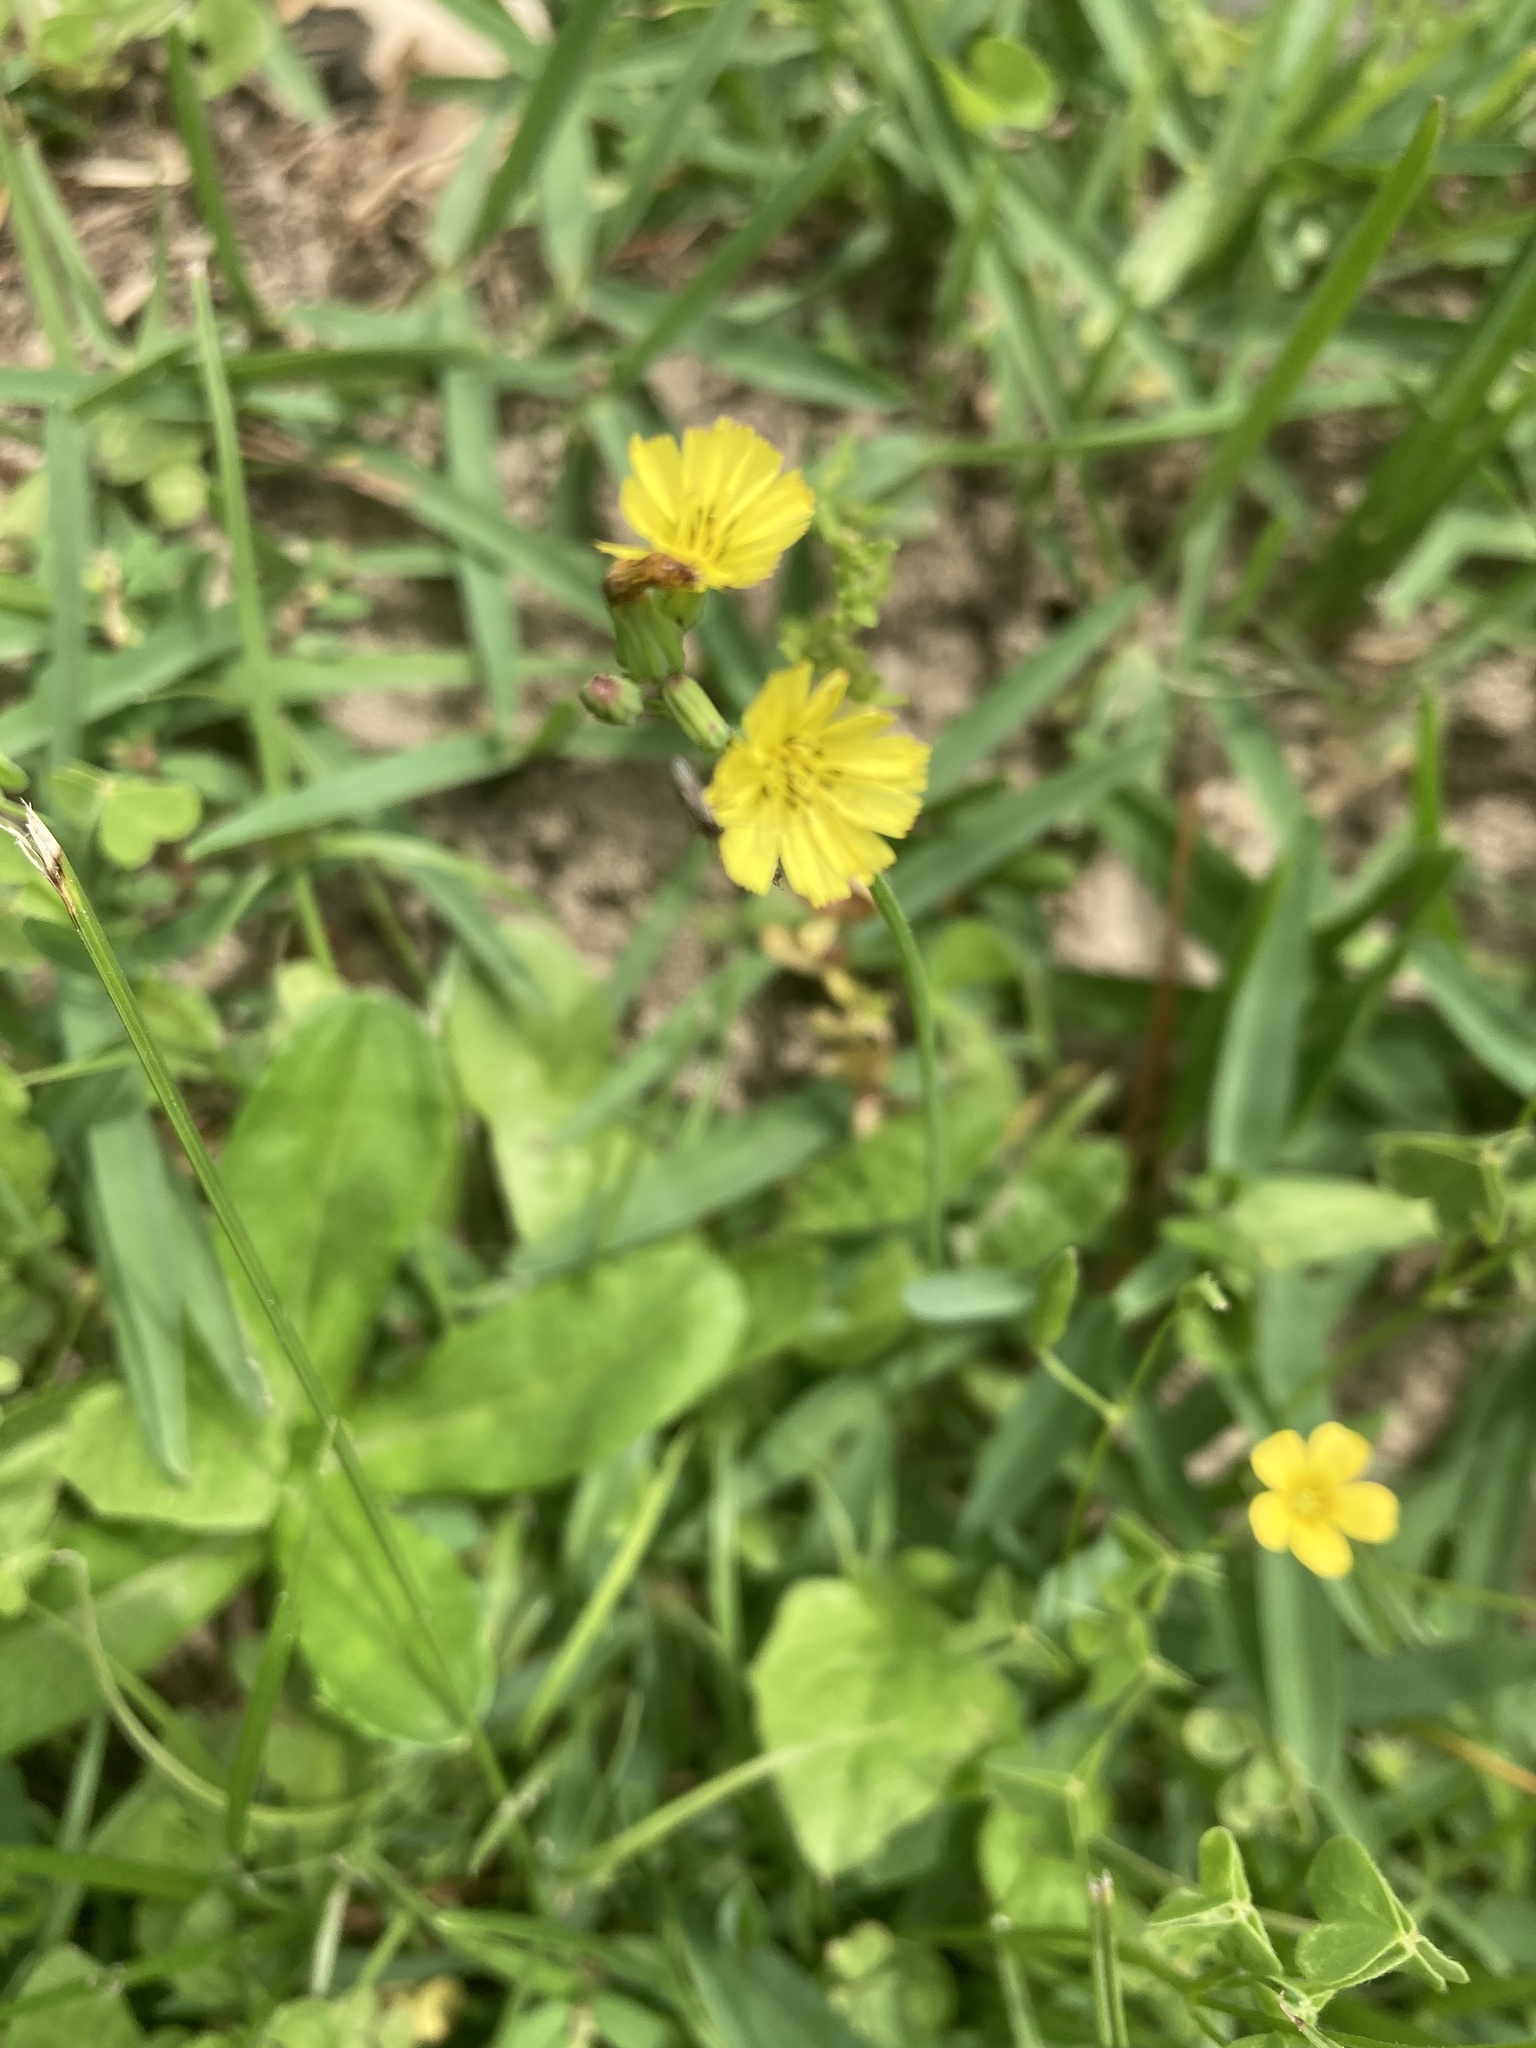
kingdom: Plantae
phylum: Tracheophyta
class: Magnoliopsida
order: Asterales
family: Asteraceae
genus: Youngia
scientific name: Youngia japonica
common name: Oriental false hawksbeard
